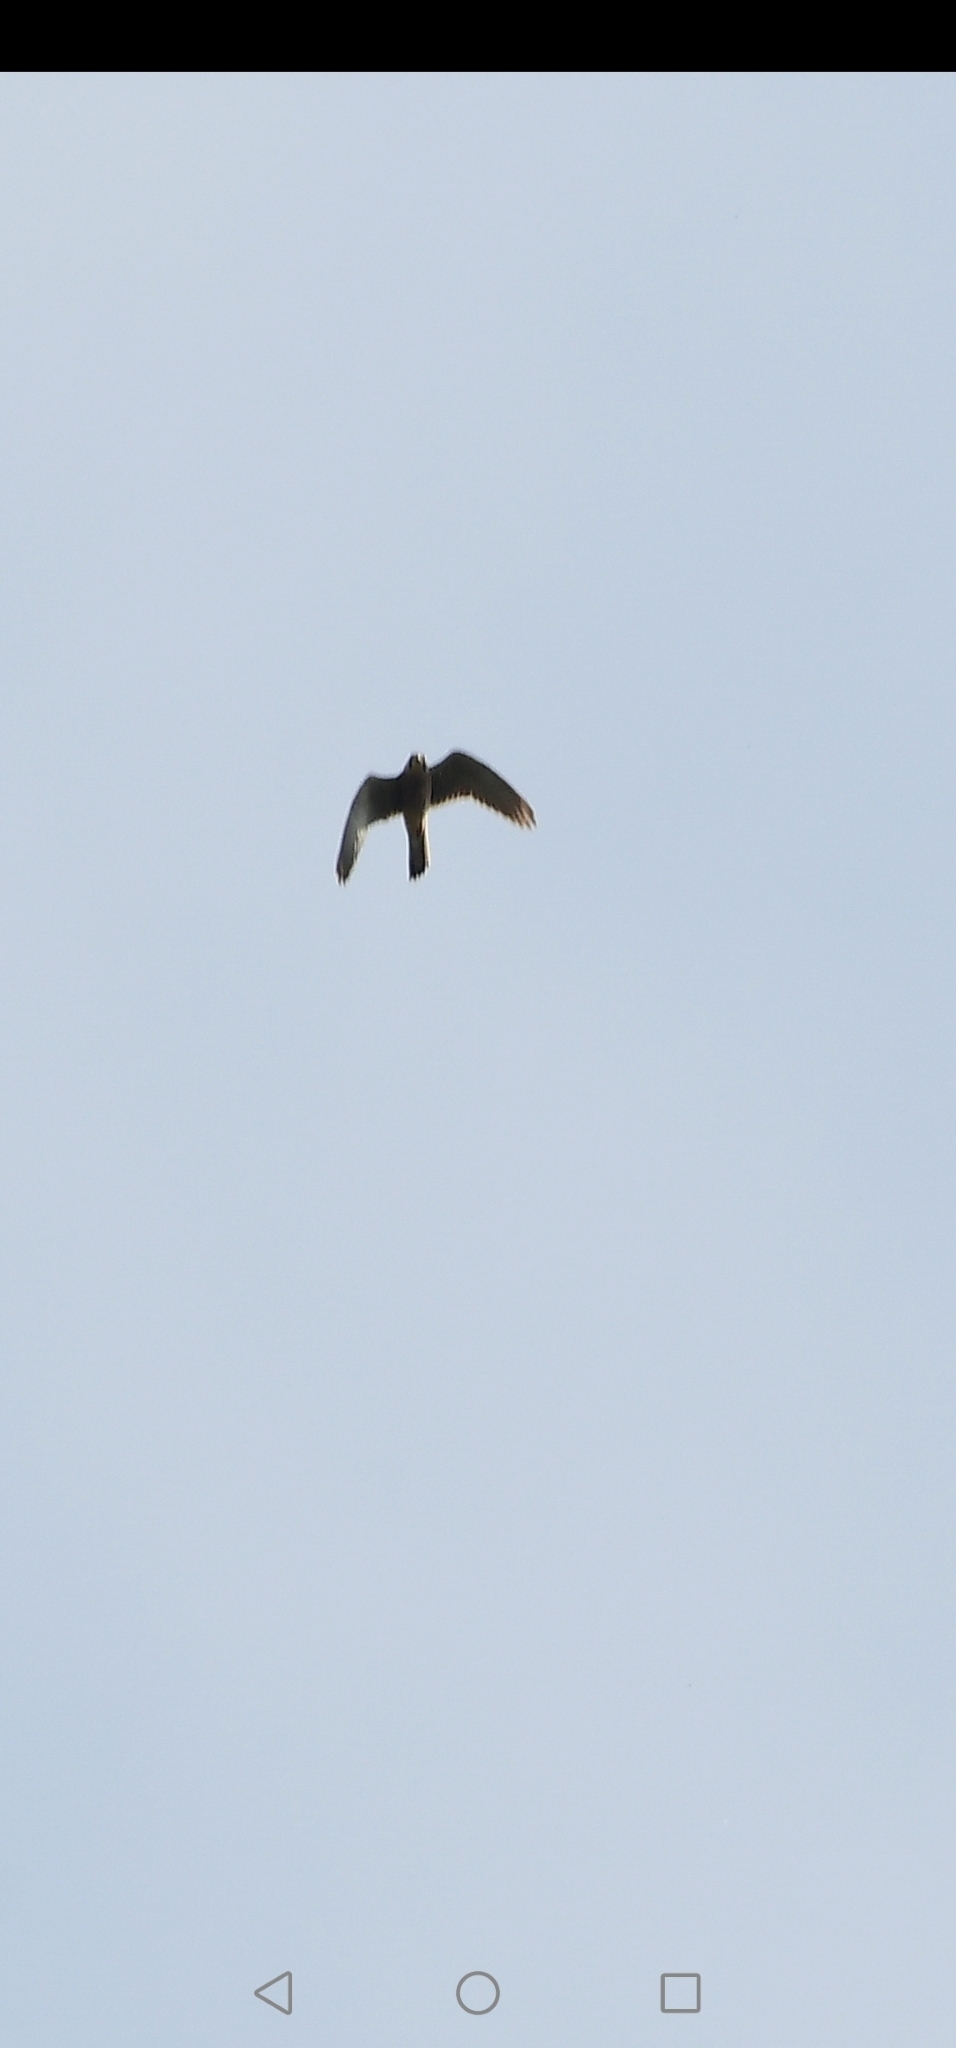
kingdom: Animalia
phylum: Chordata
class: Aves
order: Falconiformes
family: Falconidae
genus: Falco
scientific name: Falco tinnunculus
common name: Common kestrel
